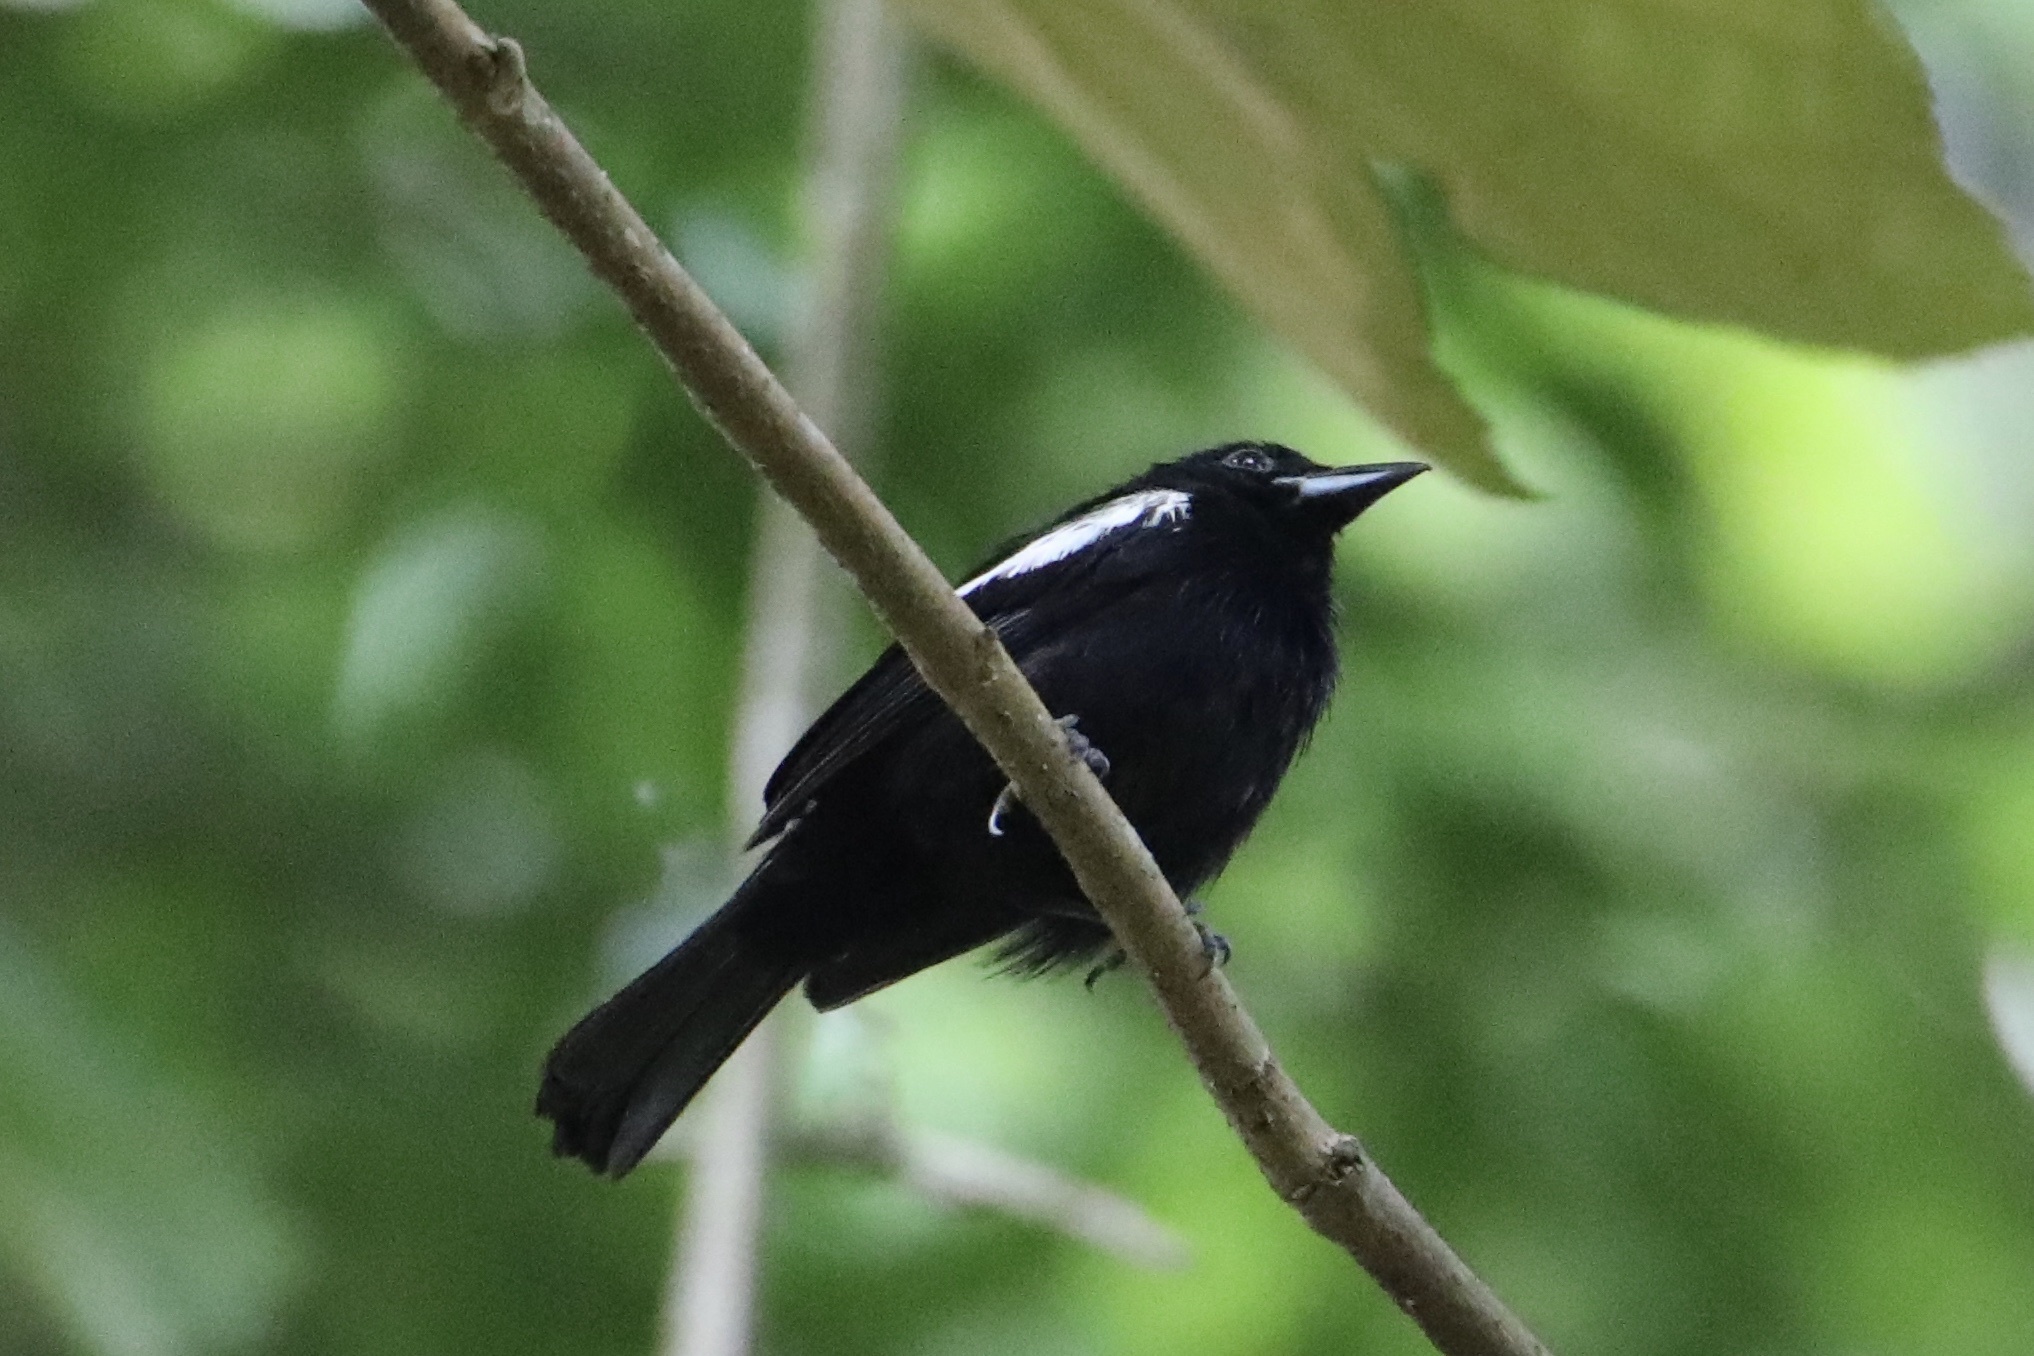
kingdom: Animalia
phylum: Chordata
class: Aves
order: Passeriformes
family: Thraupidae
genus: Loriotus
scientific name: Loriotus luctuosus
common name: White-shouldered tanager
